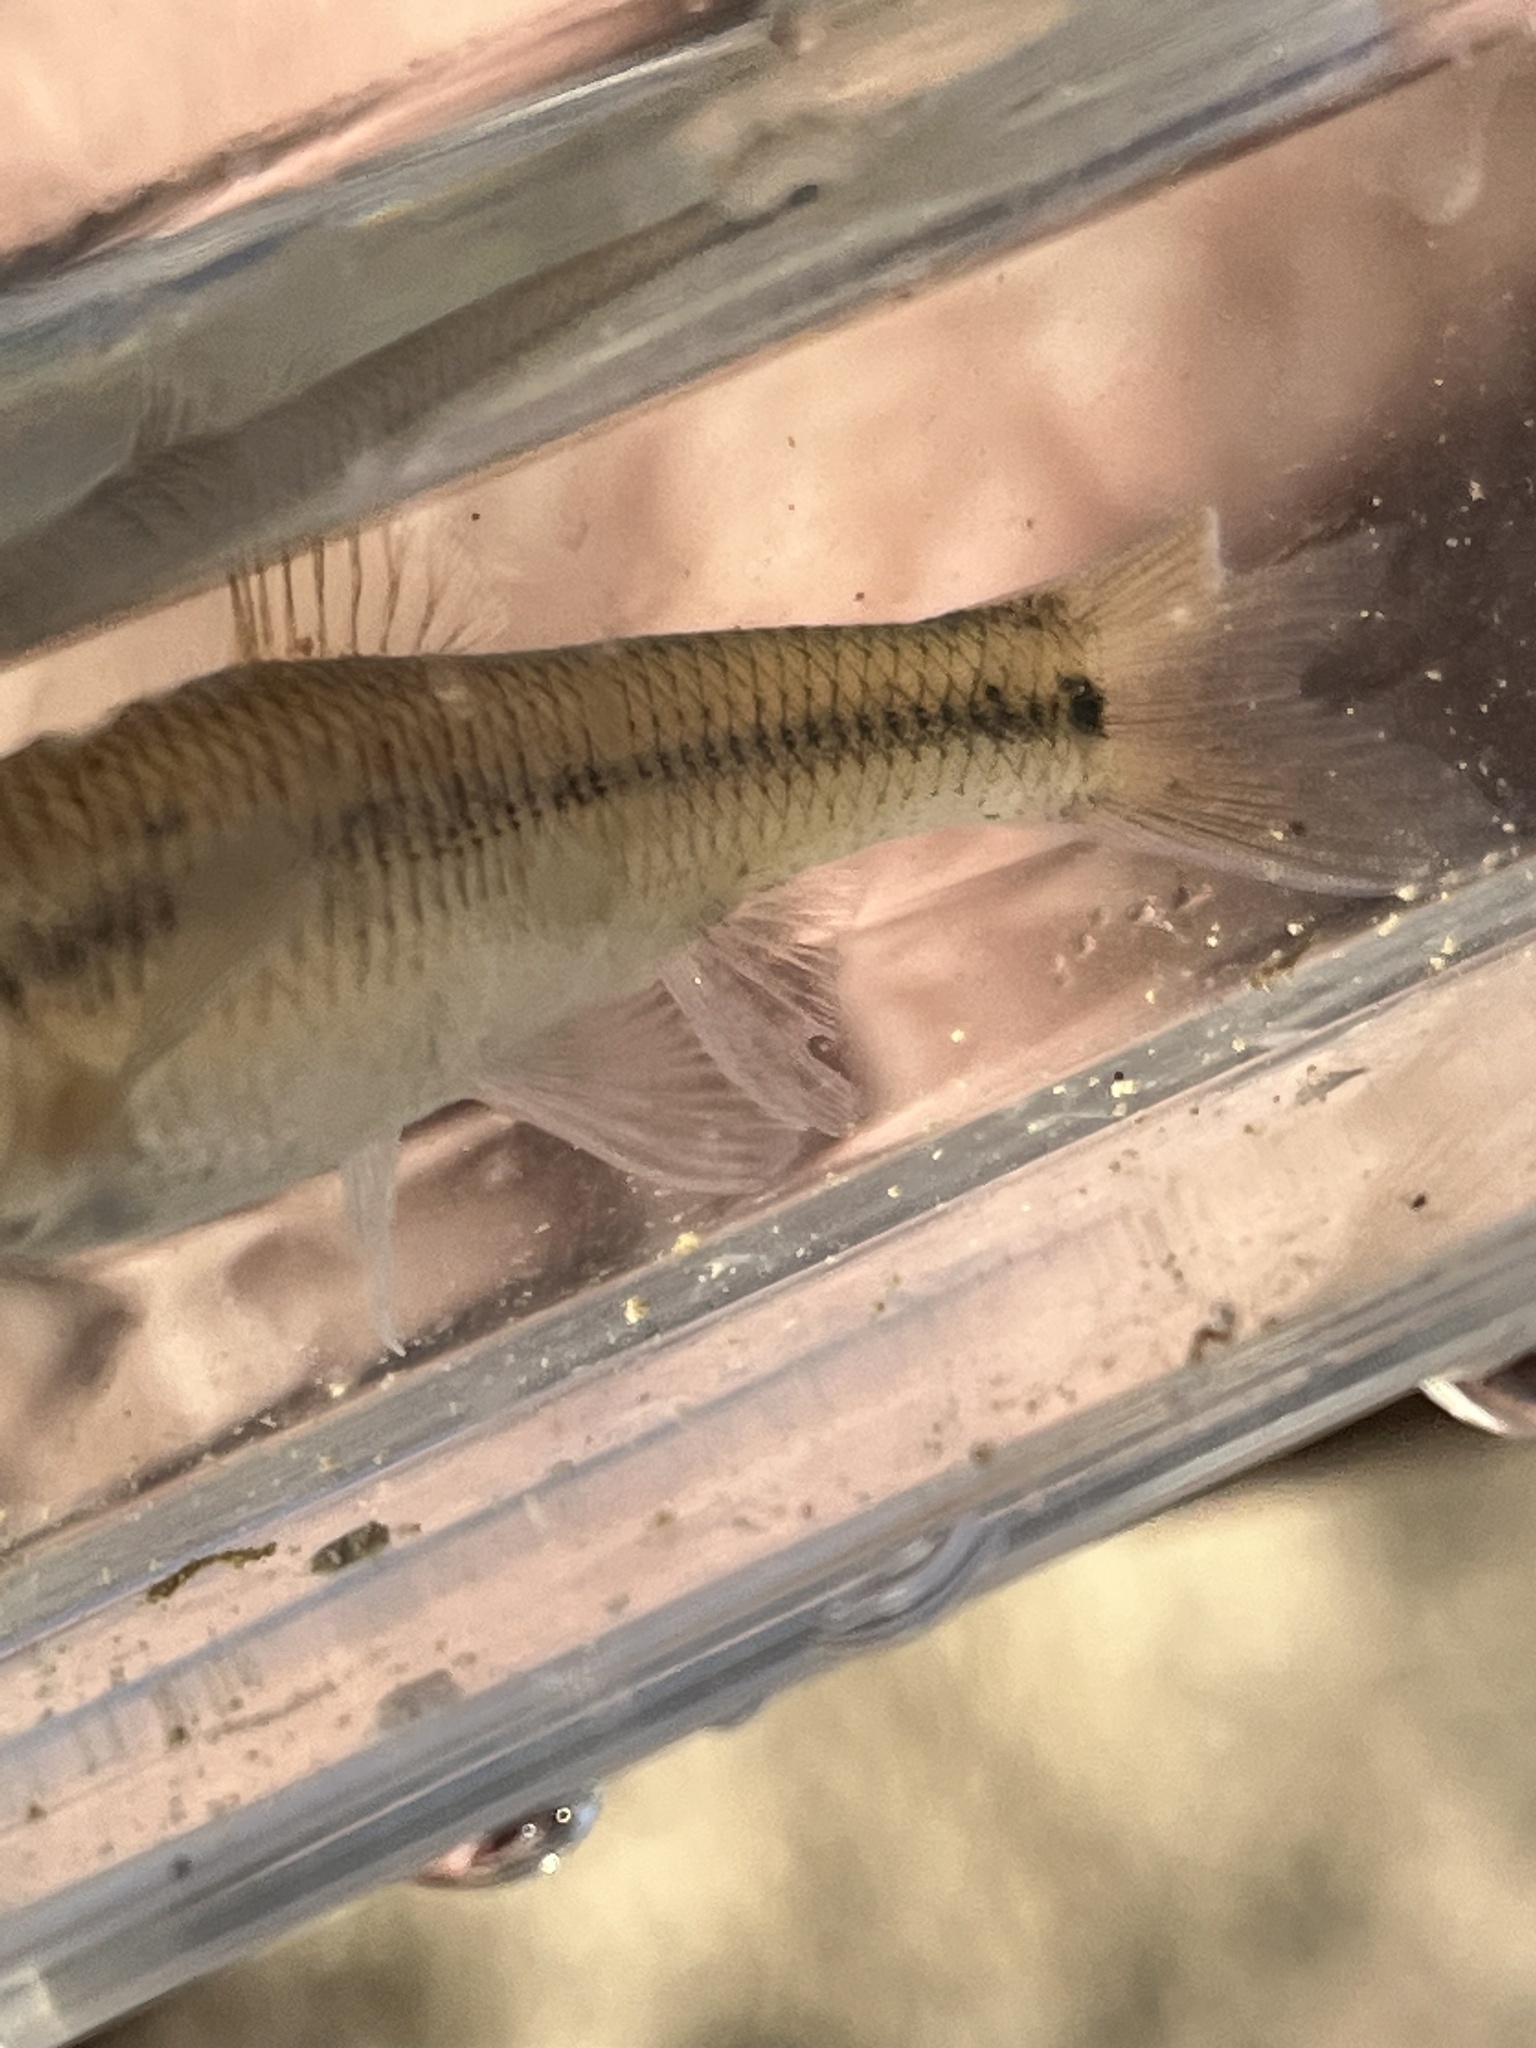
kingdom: Animalia
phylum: Chordata
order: Cypriniformes
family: Cyprinidae
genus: Pimephales
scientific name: Pimephales notatus
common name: Bluntnose minnow
